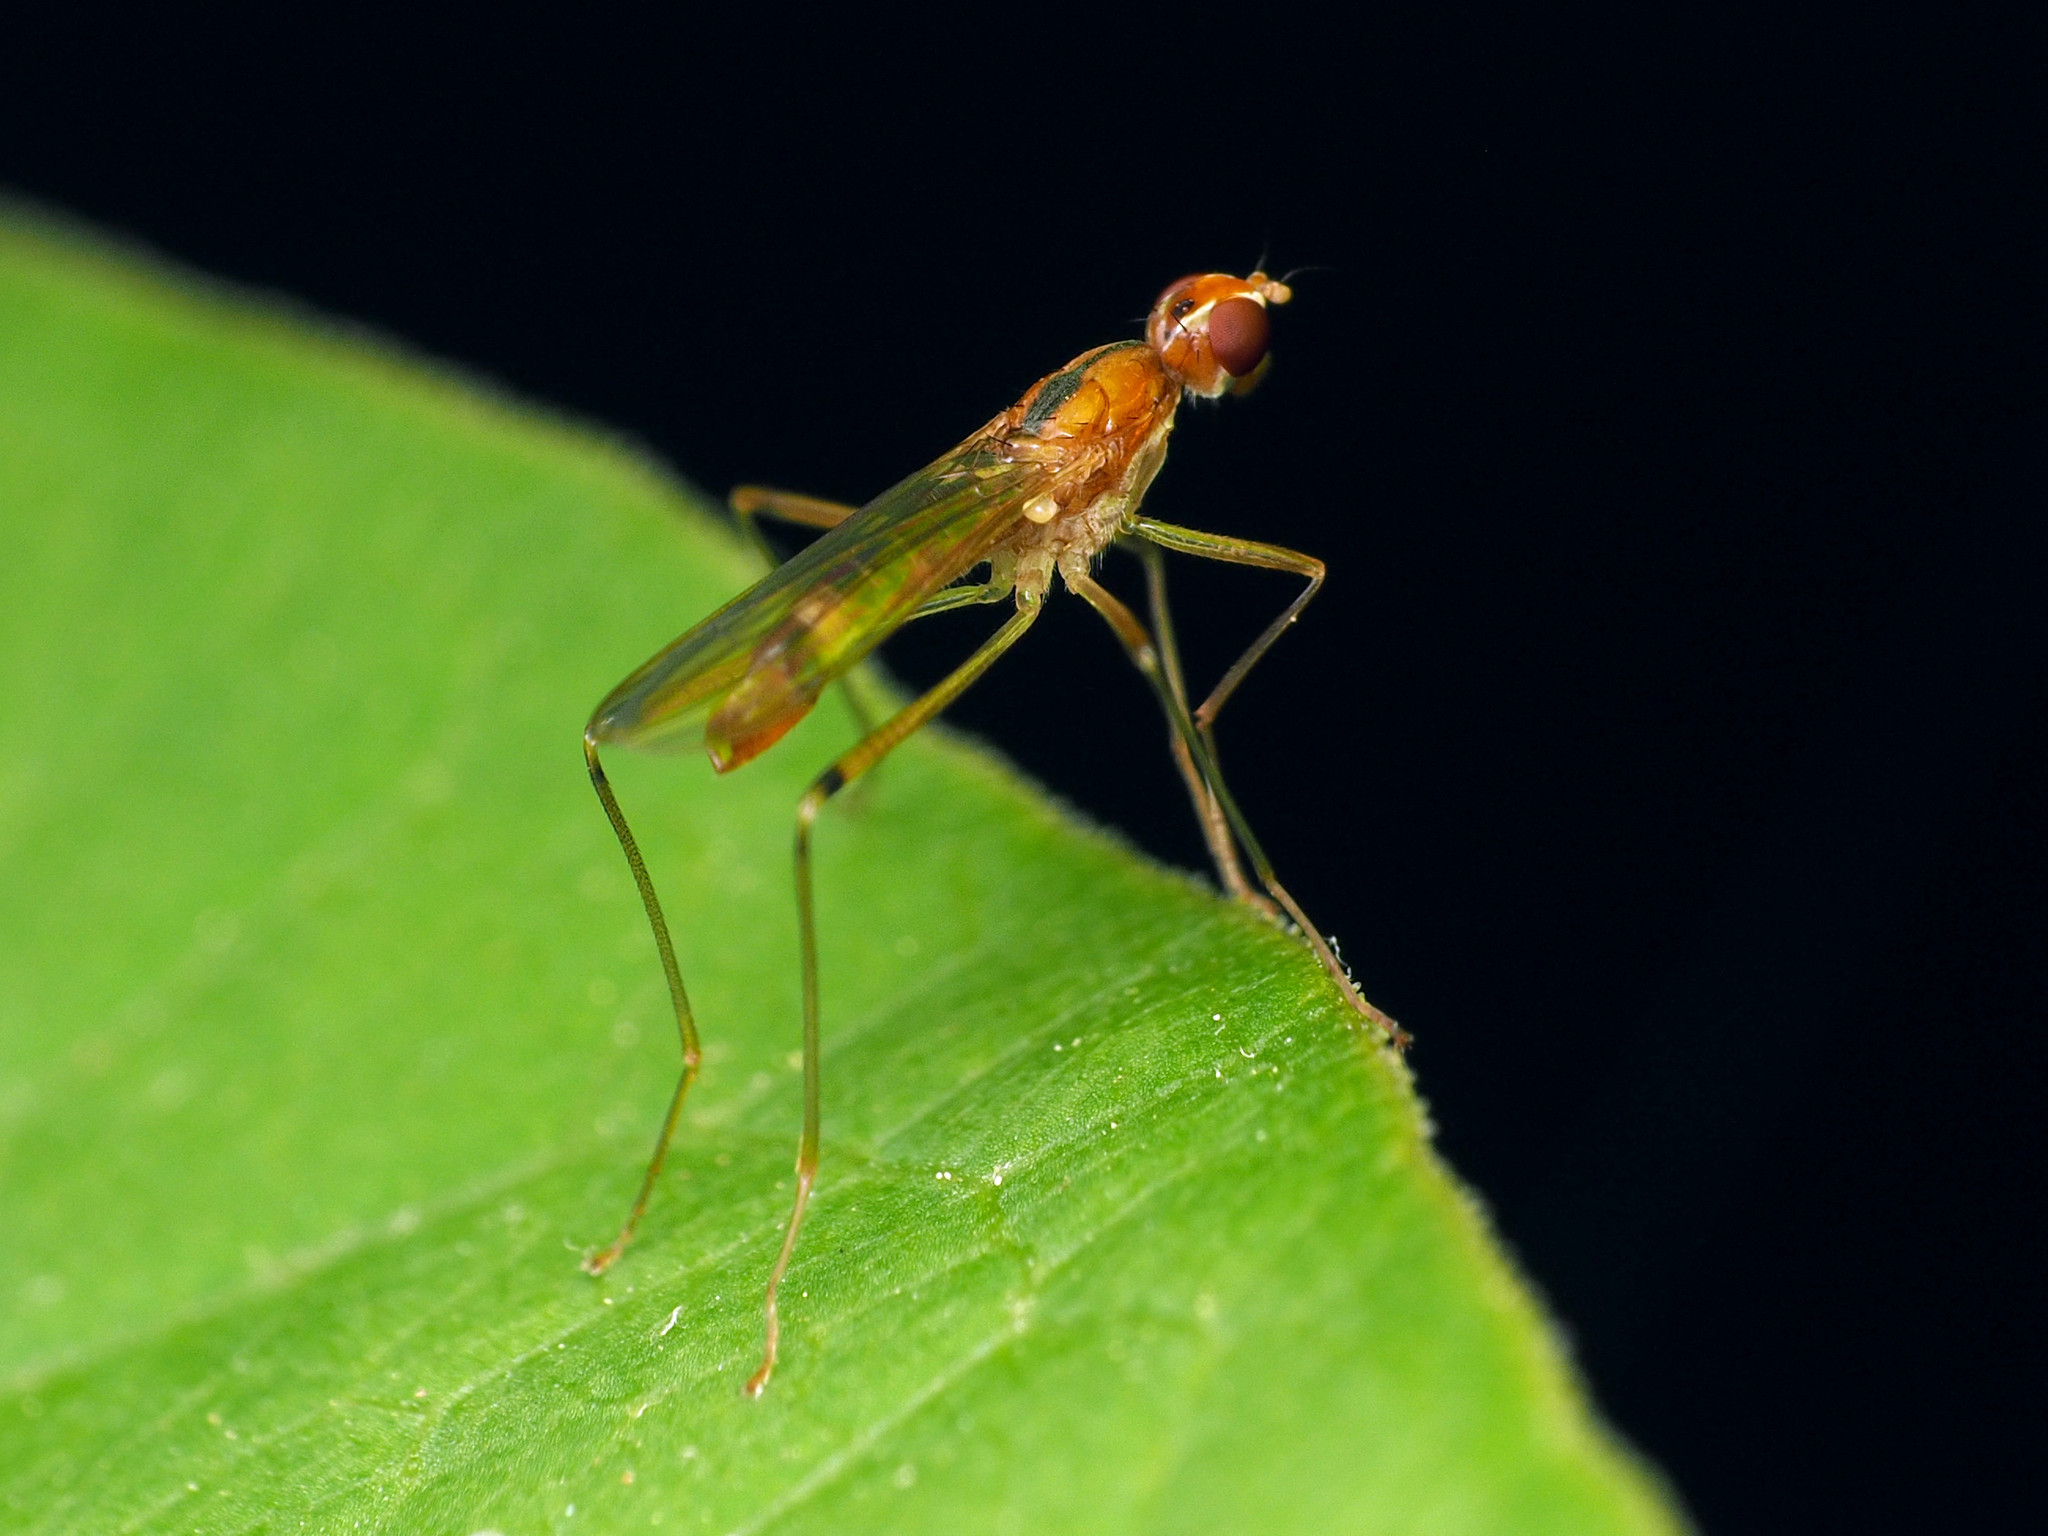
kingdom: Animalia
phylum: Arthropoda
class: Insecta
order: Diptera
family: Micropezidae
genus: Compsobata
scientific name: Compsobata univitta
